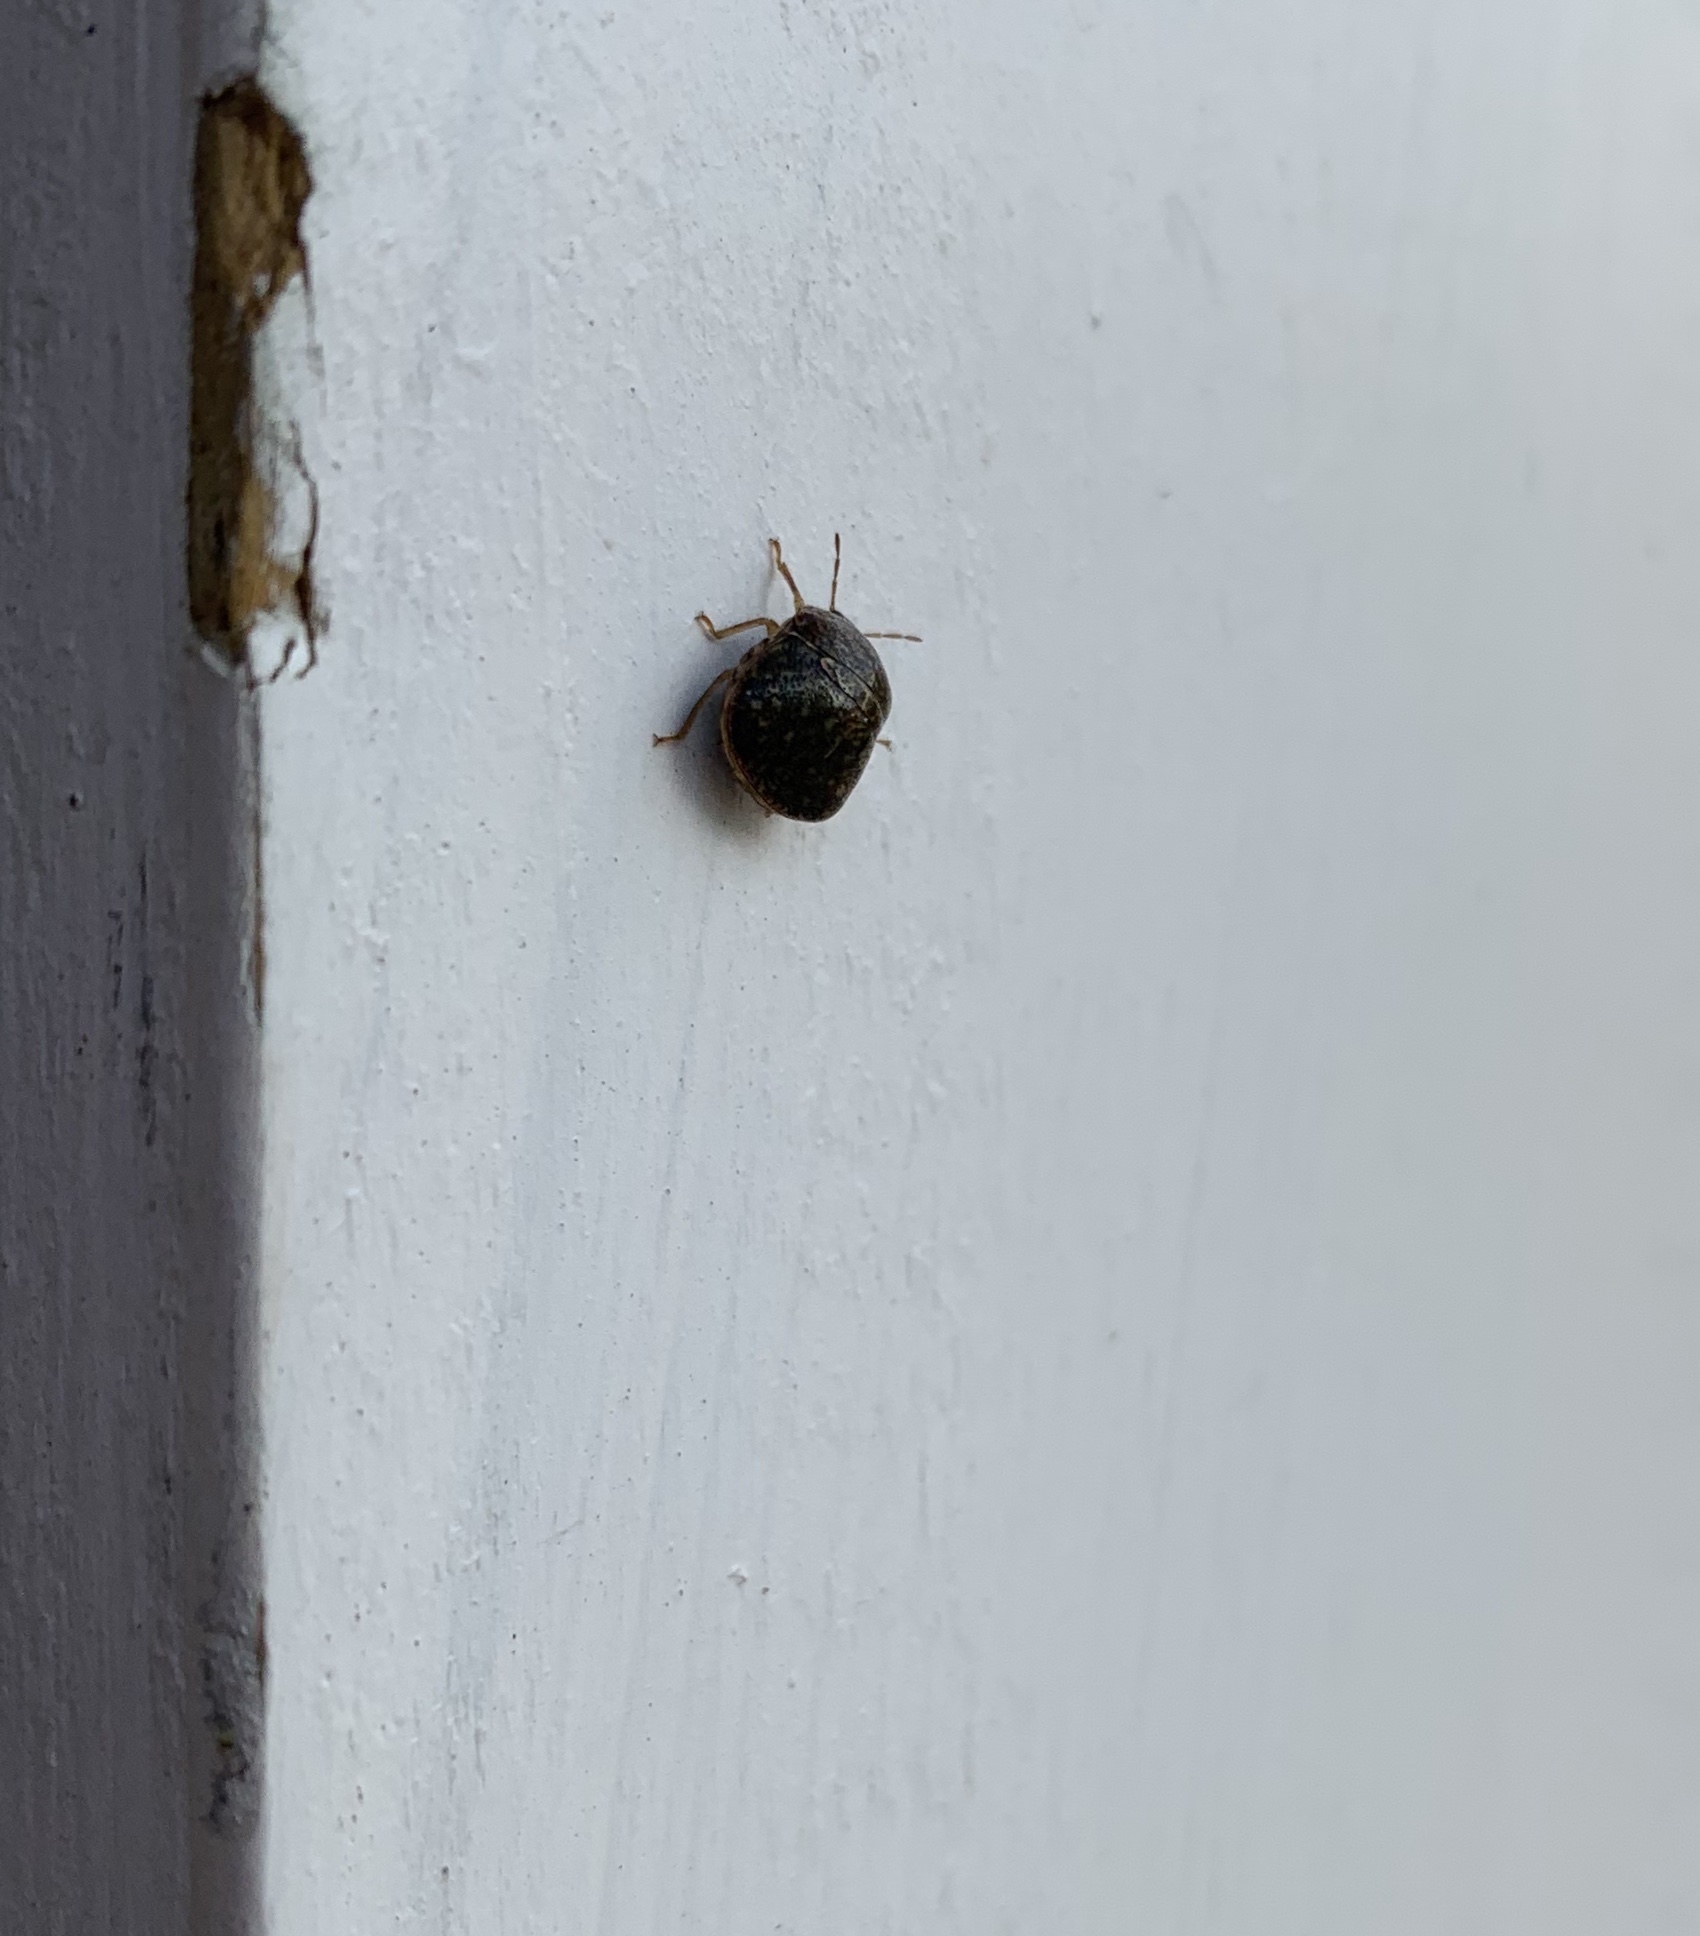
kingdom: Animalia
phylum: Arthropoda
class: Insecta
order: Hemiptera
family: Plataspidae
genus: Megacopta
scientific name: Megacopta cribraria
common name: Bean plataspid
